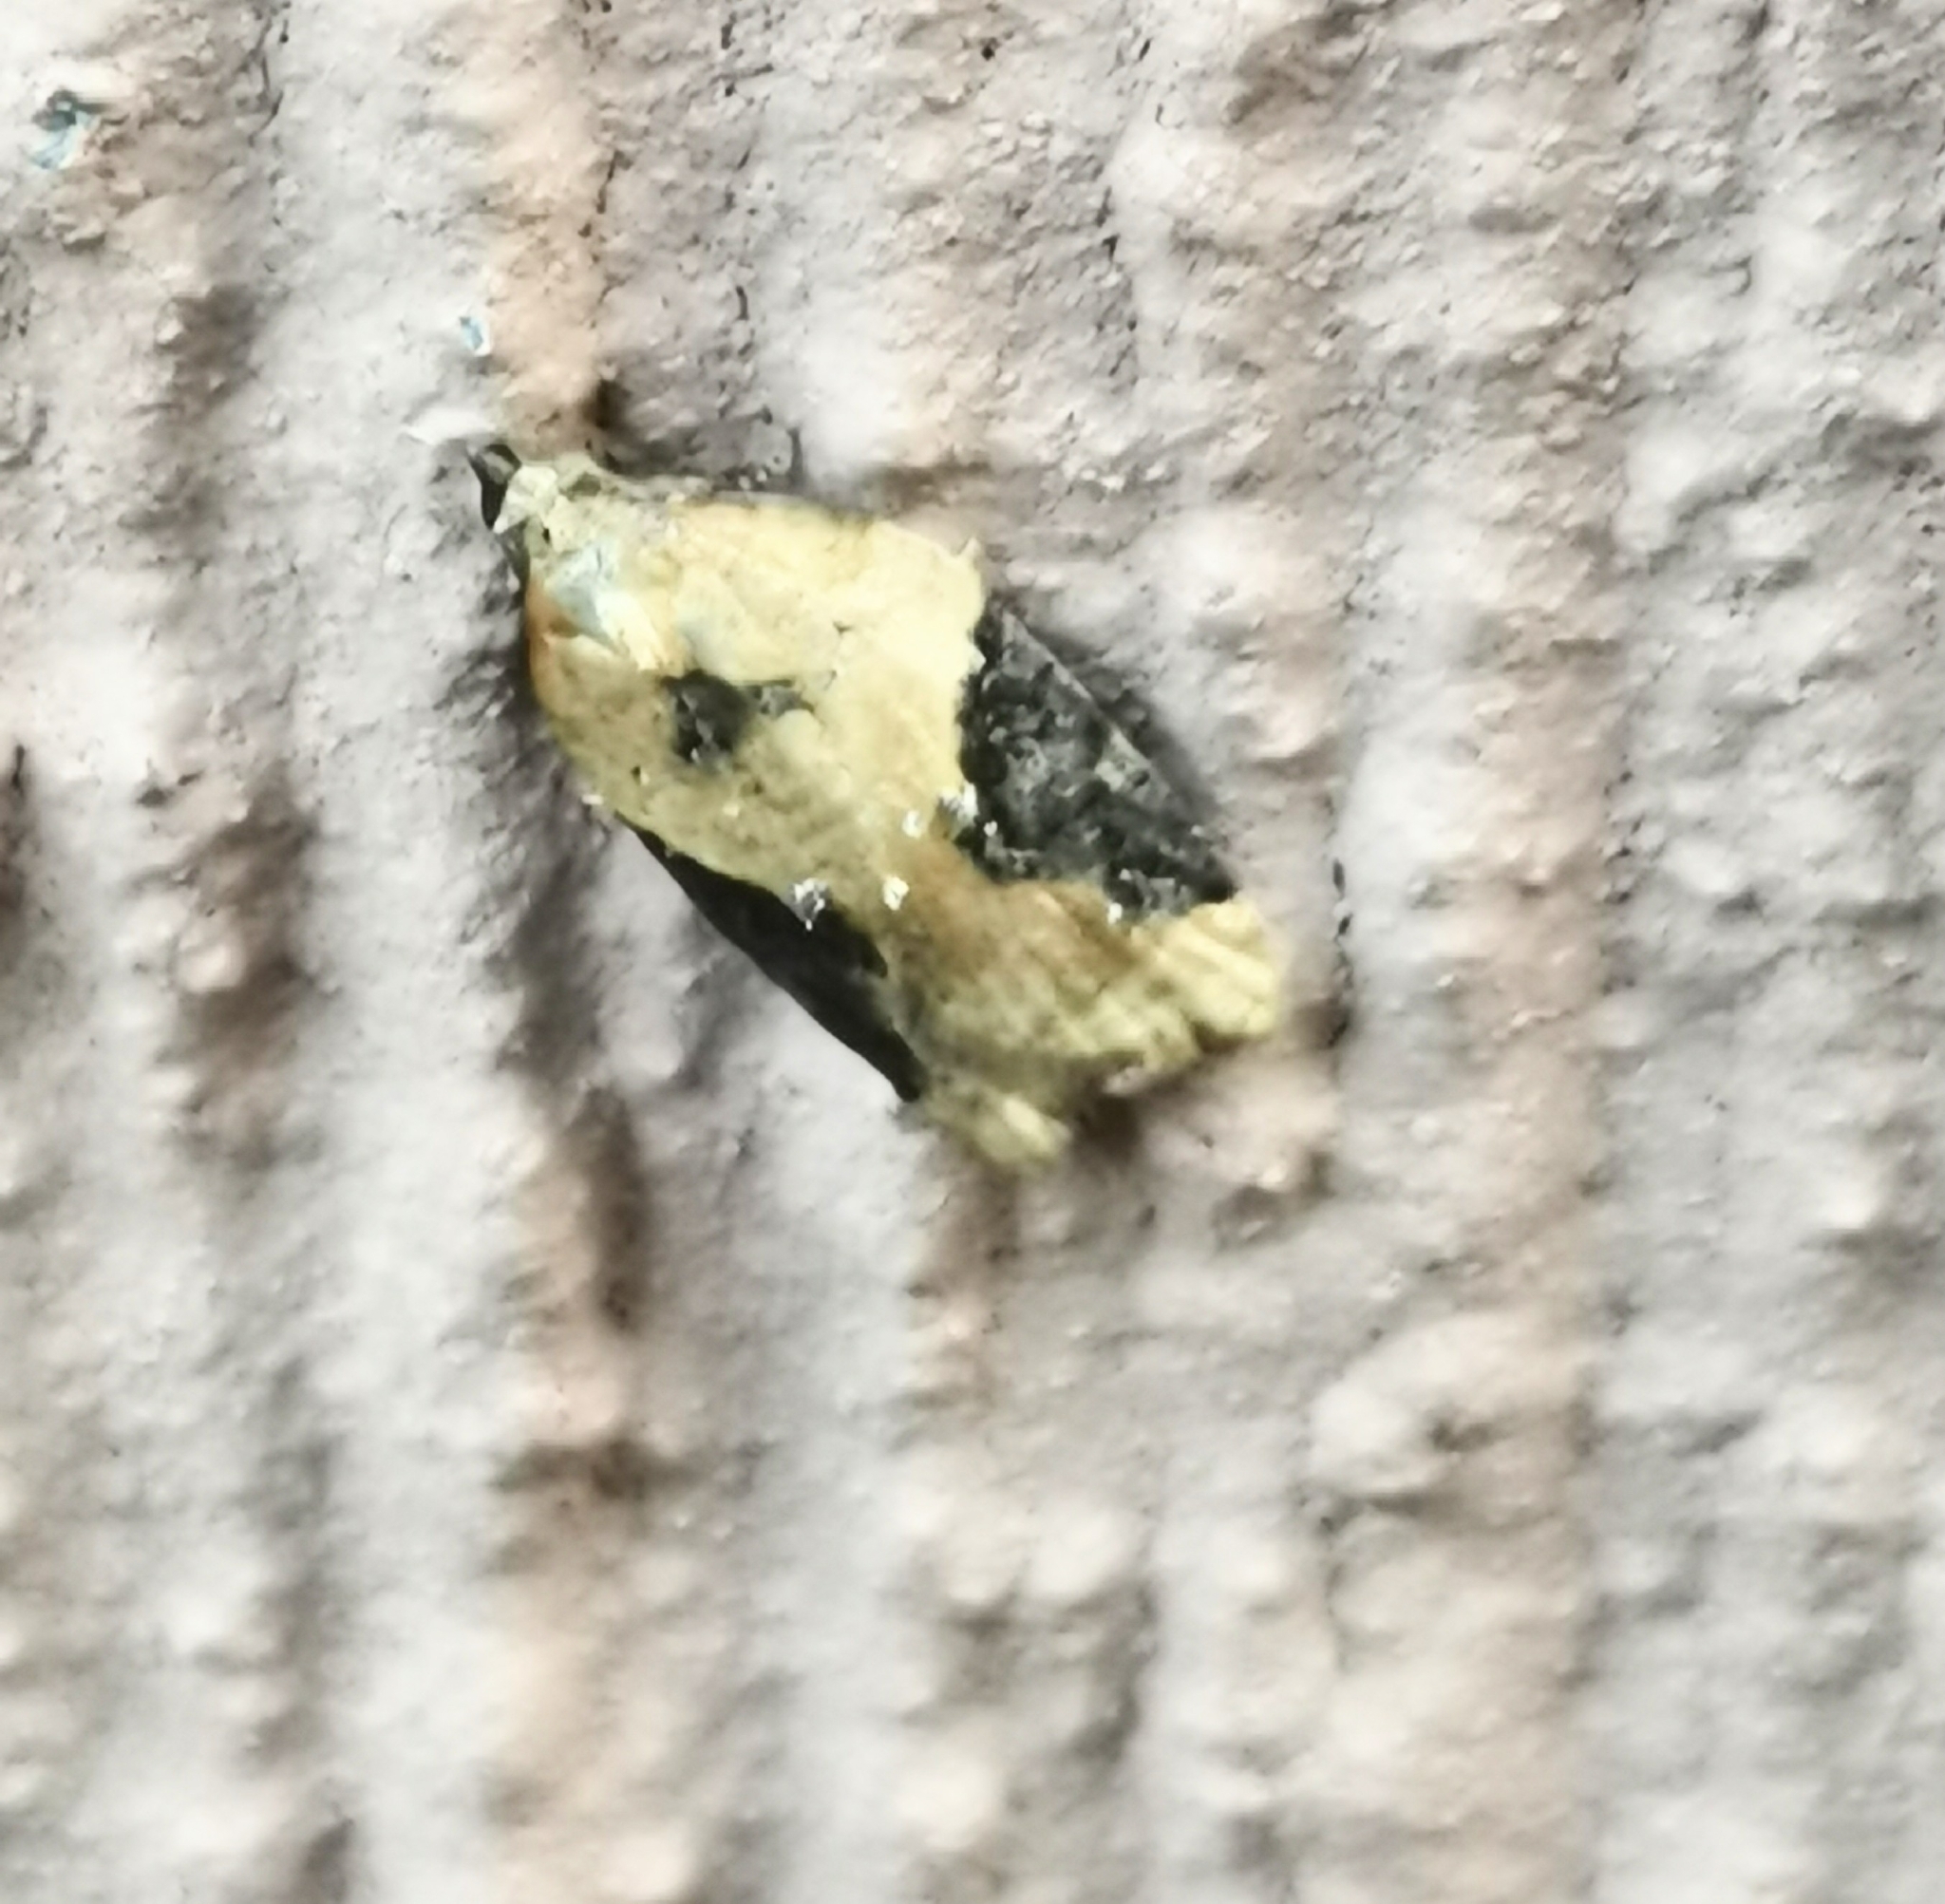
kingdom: Animalia
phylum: Arthropoda
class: Insecta
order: Lepidoptera
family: Tortricidae
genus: Acleris
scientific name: Acleris laterana
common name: Dark-triangle button
